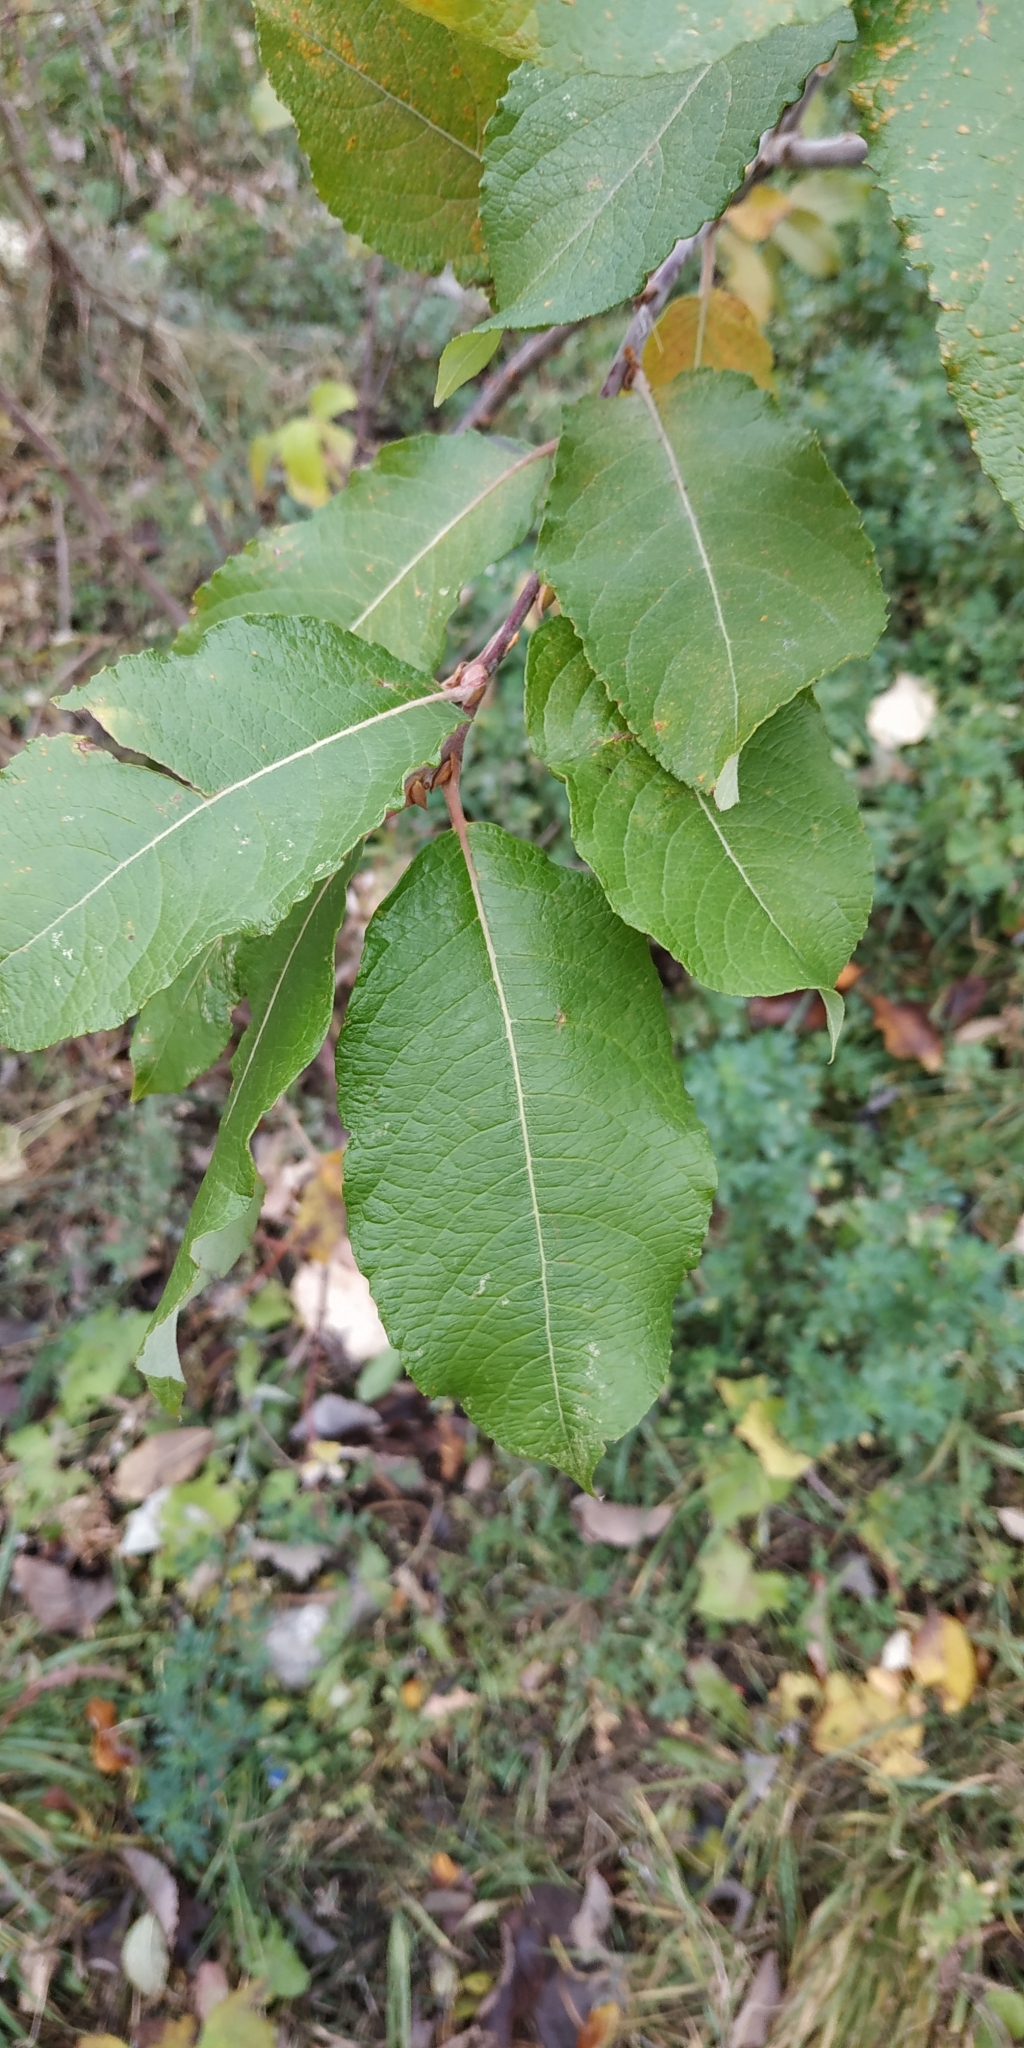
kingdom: Plantae
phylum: Tracheophyta
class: Magnoliopsida
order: Malpighiales
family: Salicaceae
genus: Salix
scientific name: Salix caprea
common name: Goat willow
